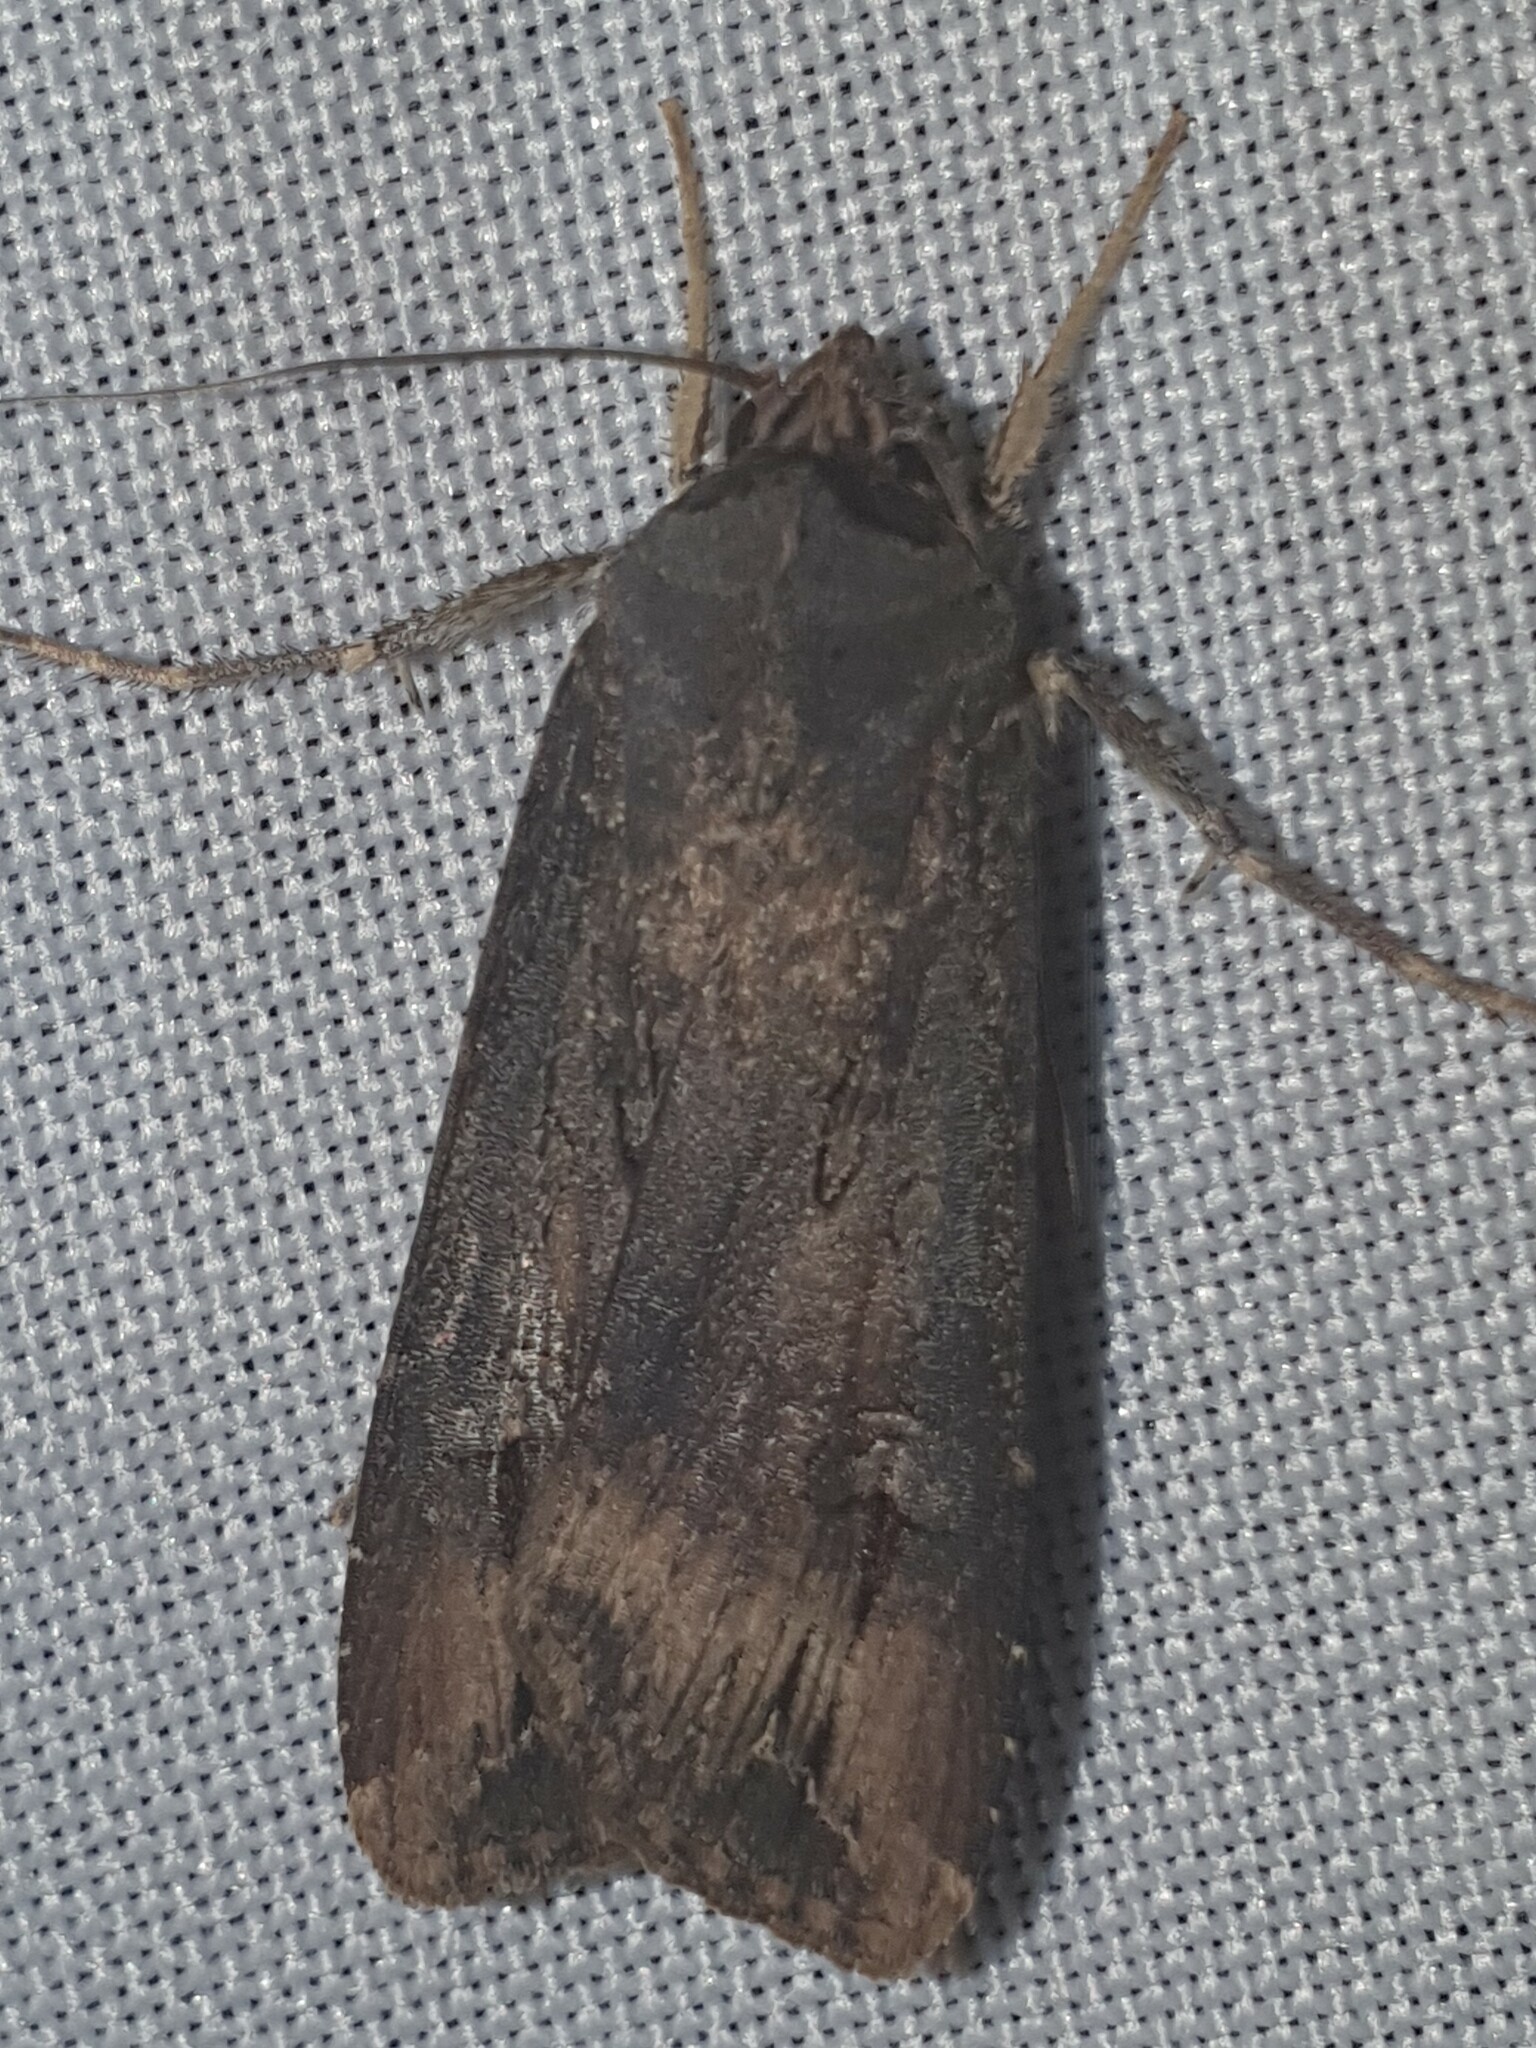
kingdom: Animalia
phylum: Arthropoda
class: Insecta
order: Lepidoptera
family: Noctuidae
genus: Agrotis
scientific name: Agrotis ipsilon
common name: Dark sword-grass
